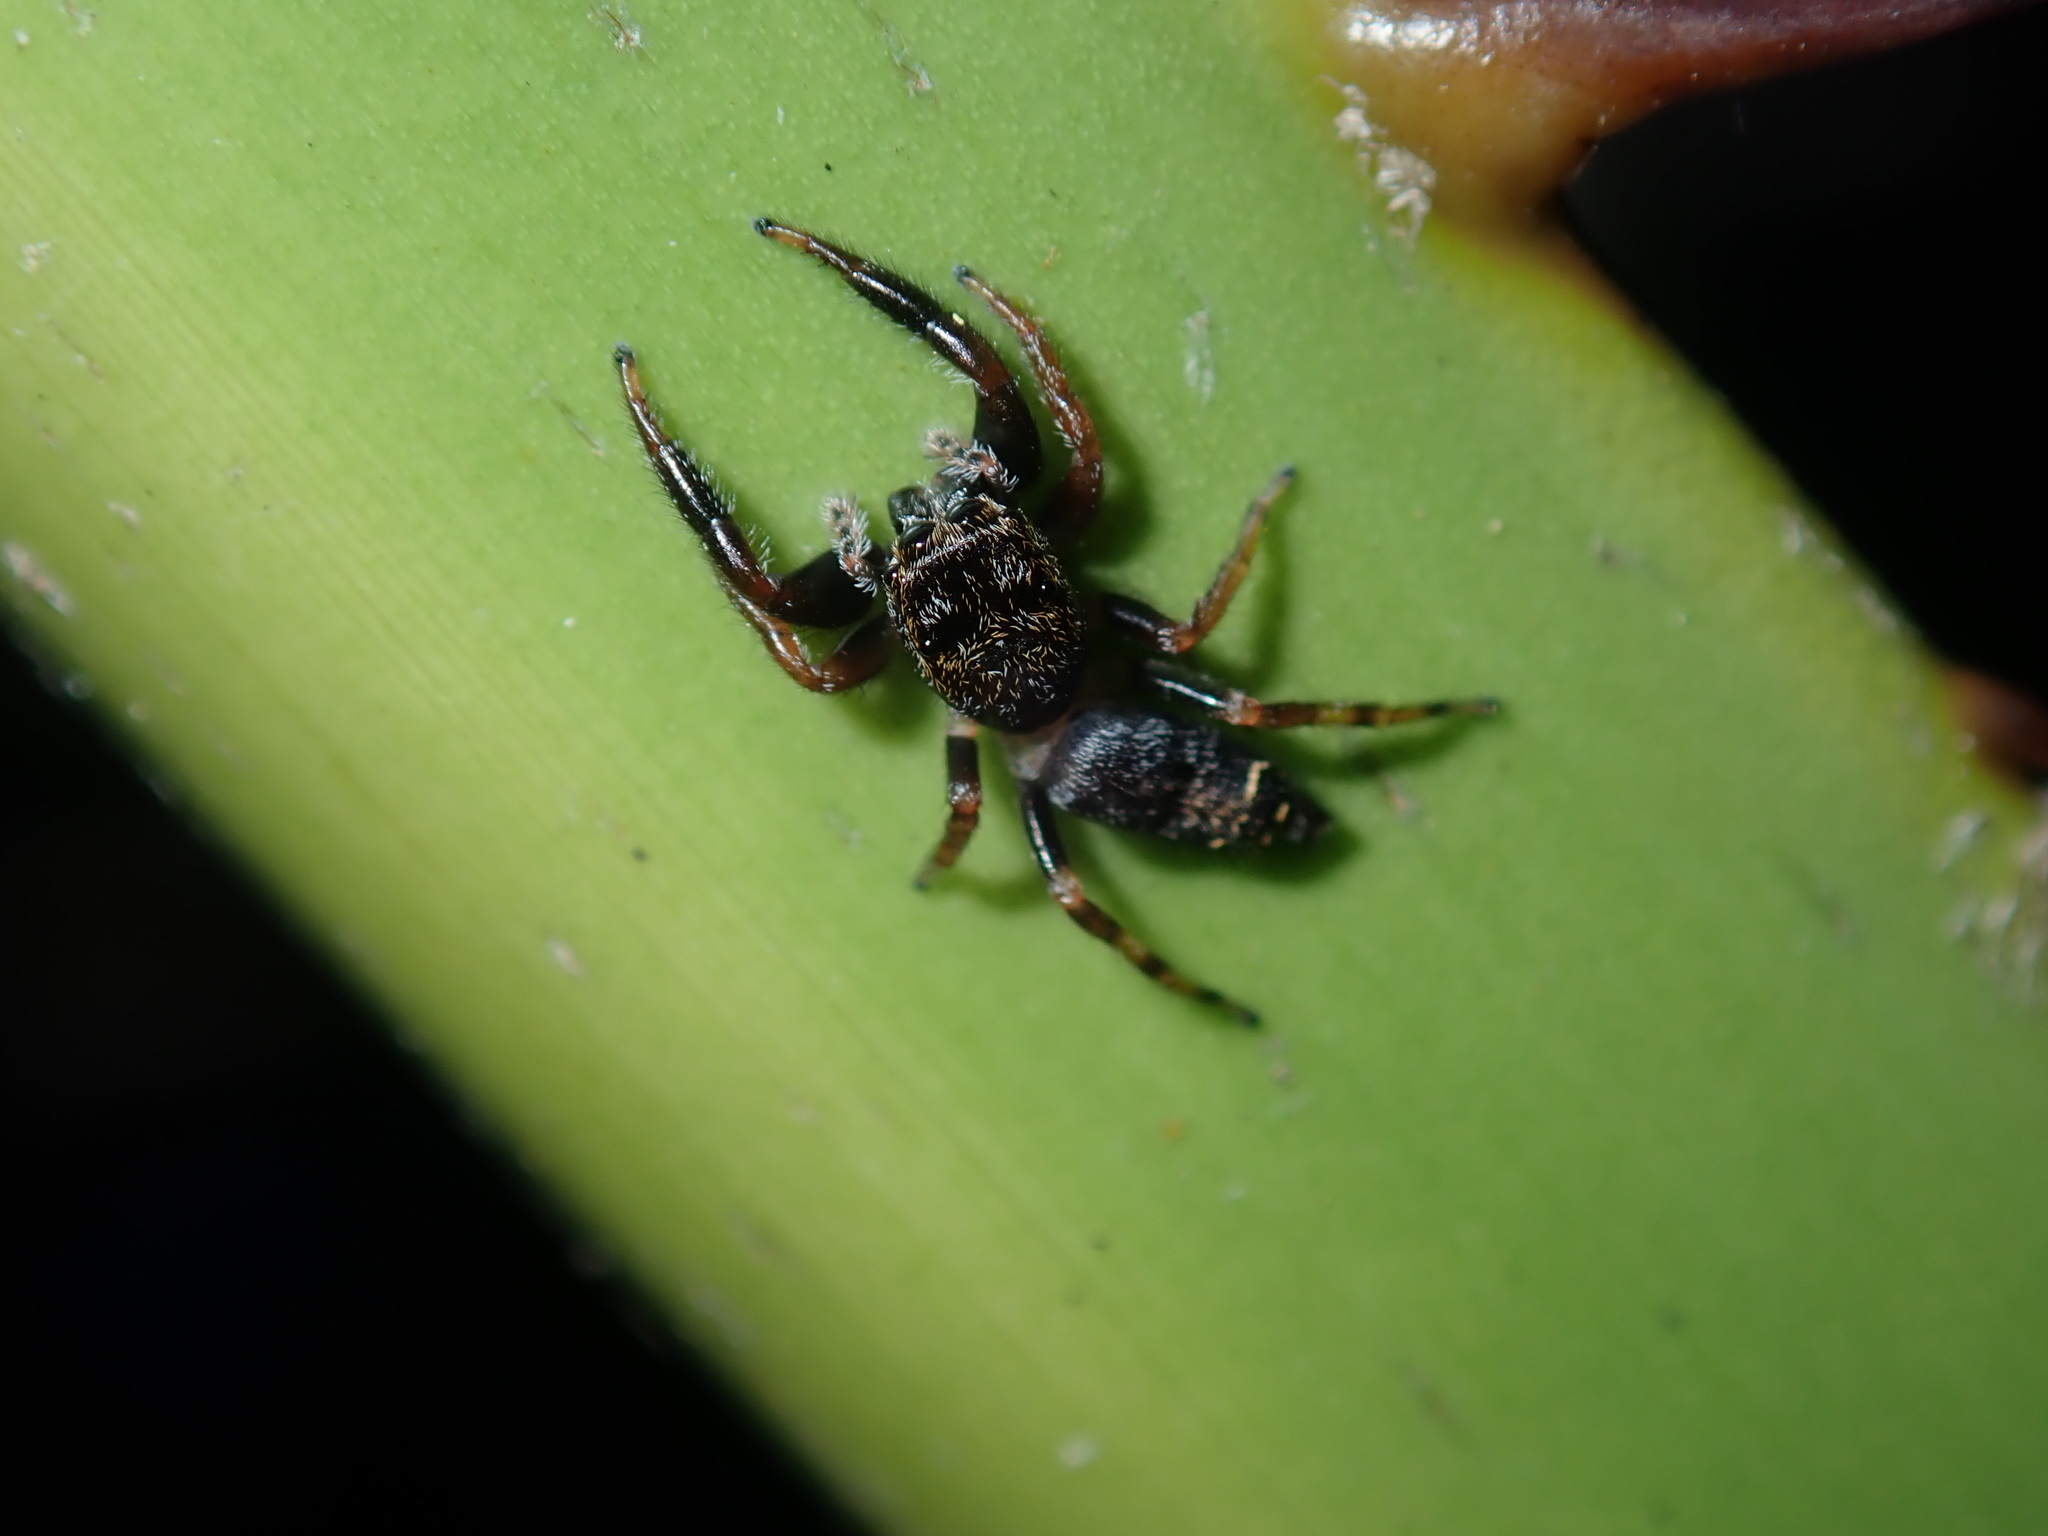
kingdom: Animalia
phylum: Arthropoda
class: Arachnida
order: Araneae
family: Salticidae
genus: Pungalina
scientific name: Pungalina plurilineata
